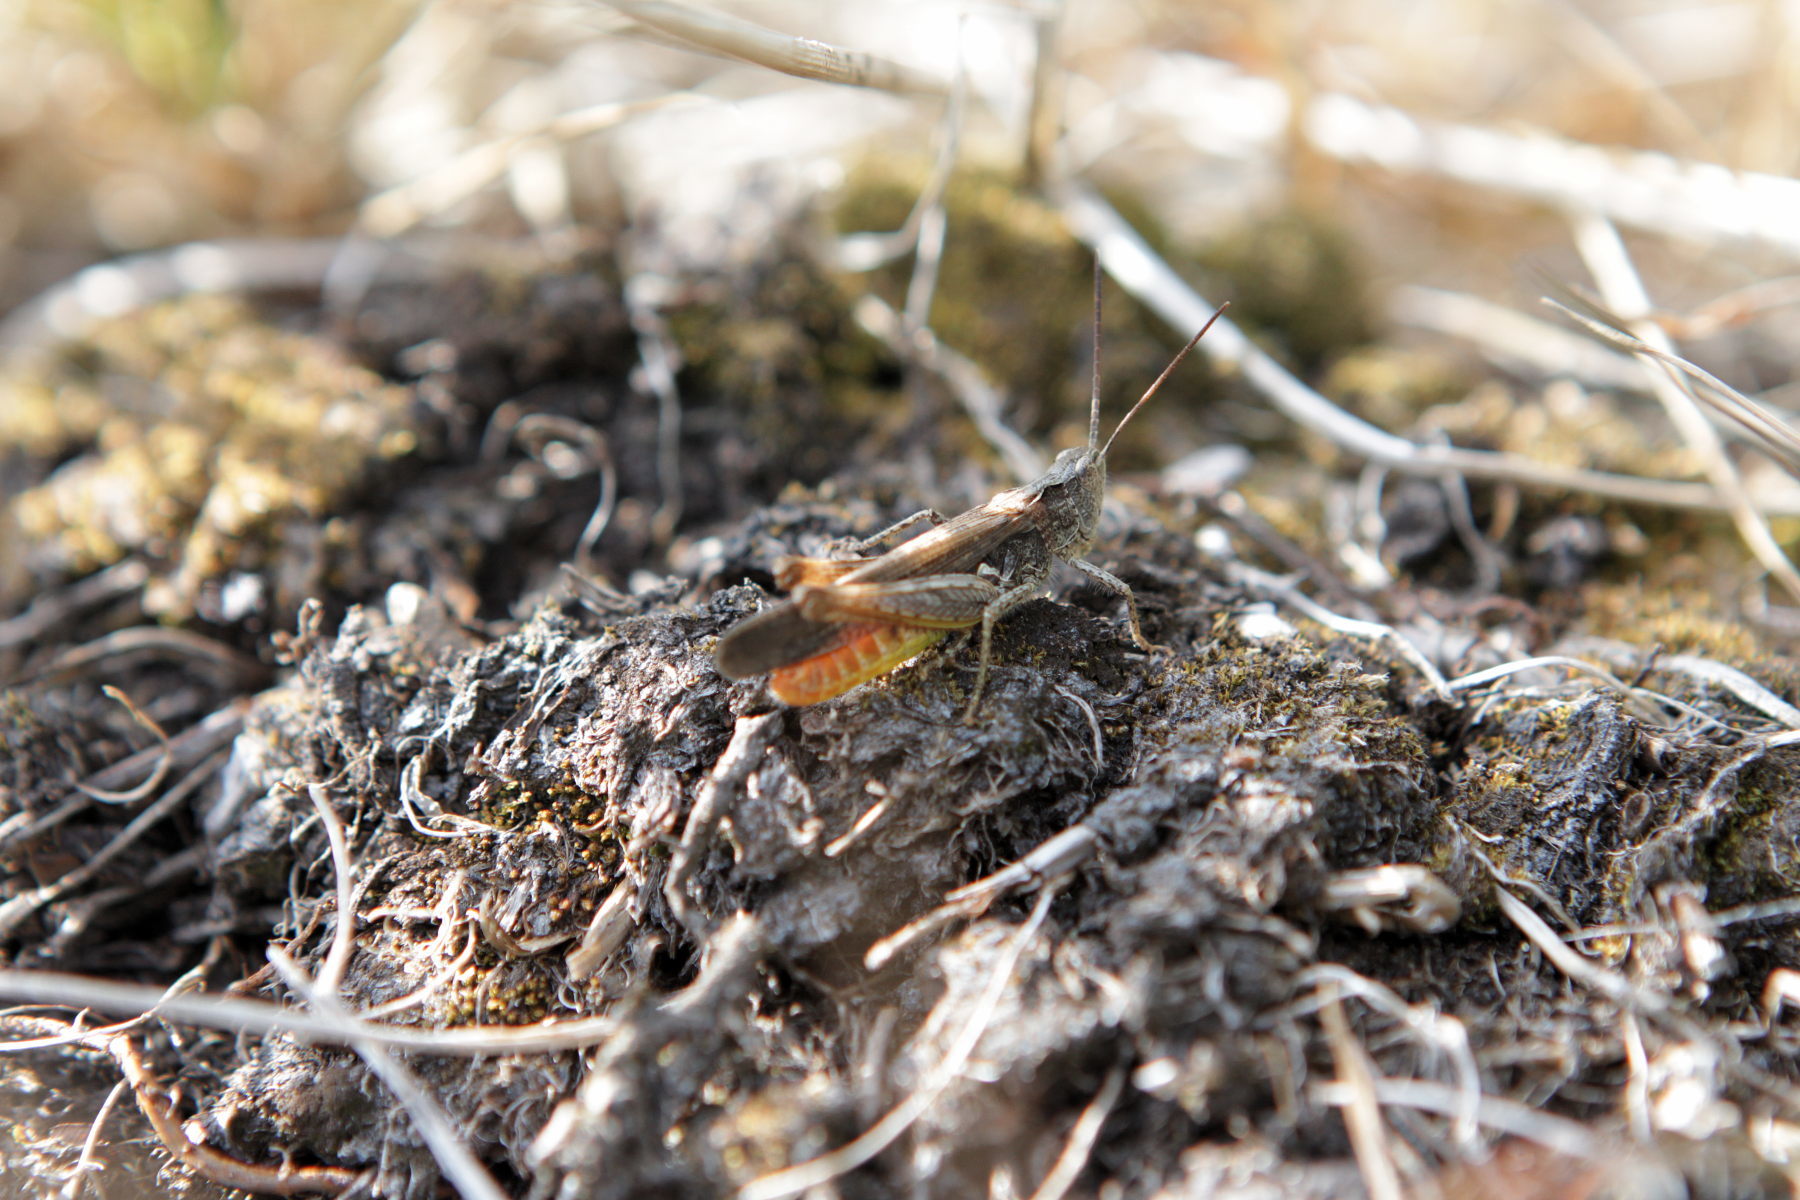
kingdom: Animalia
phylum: Arthropoda
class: Insecta
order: Orthoptera
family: Acrididae
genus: Chorthippus
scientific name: Chorthippus brunneus
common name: Field grasshopper
